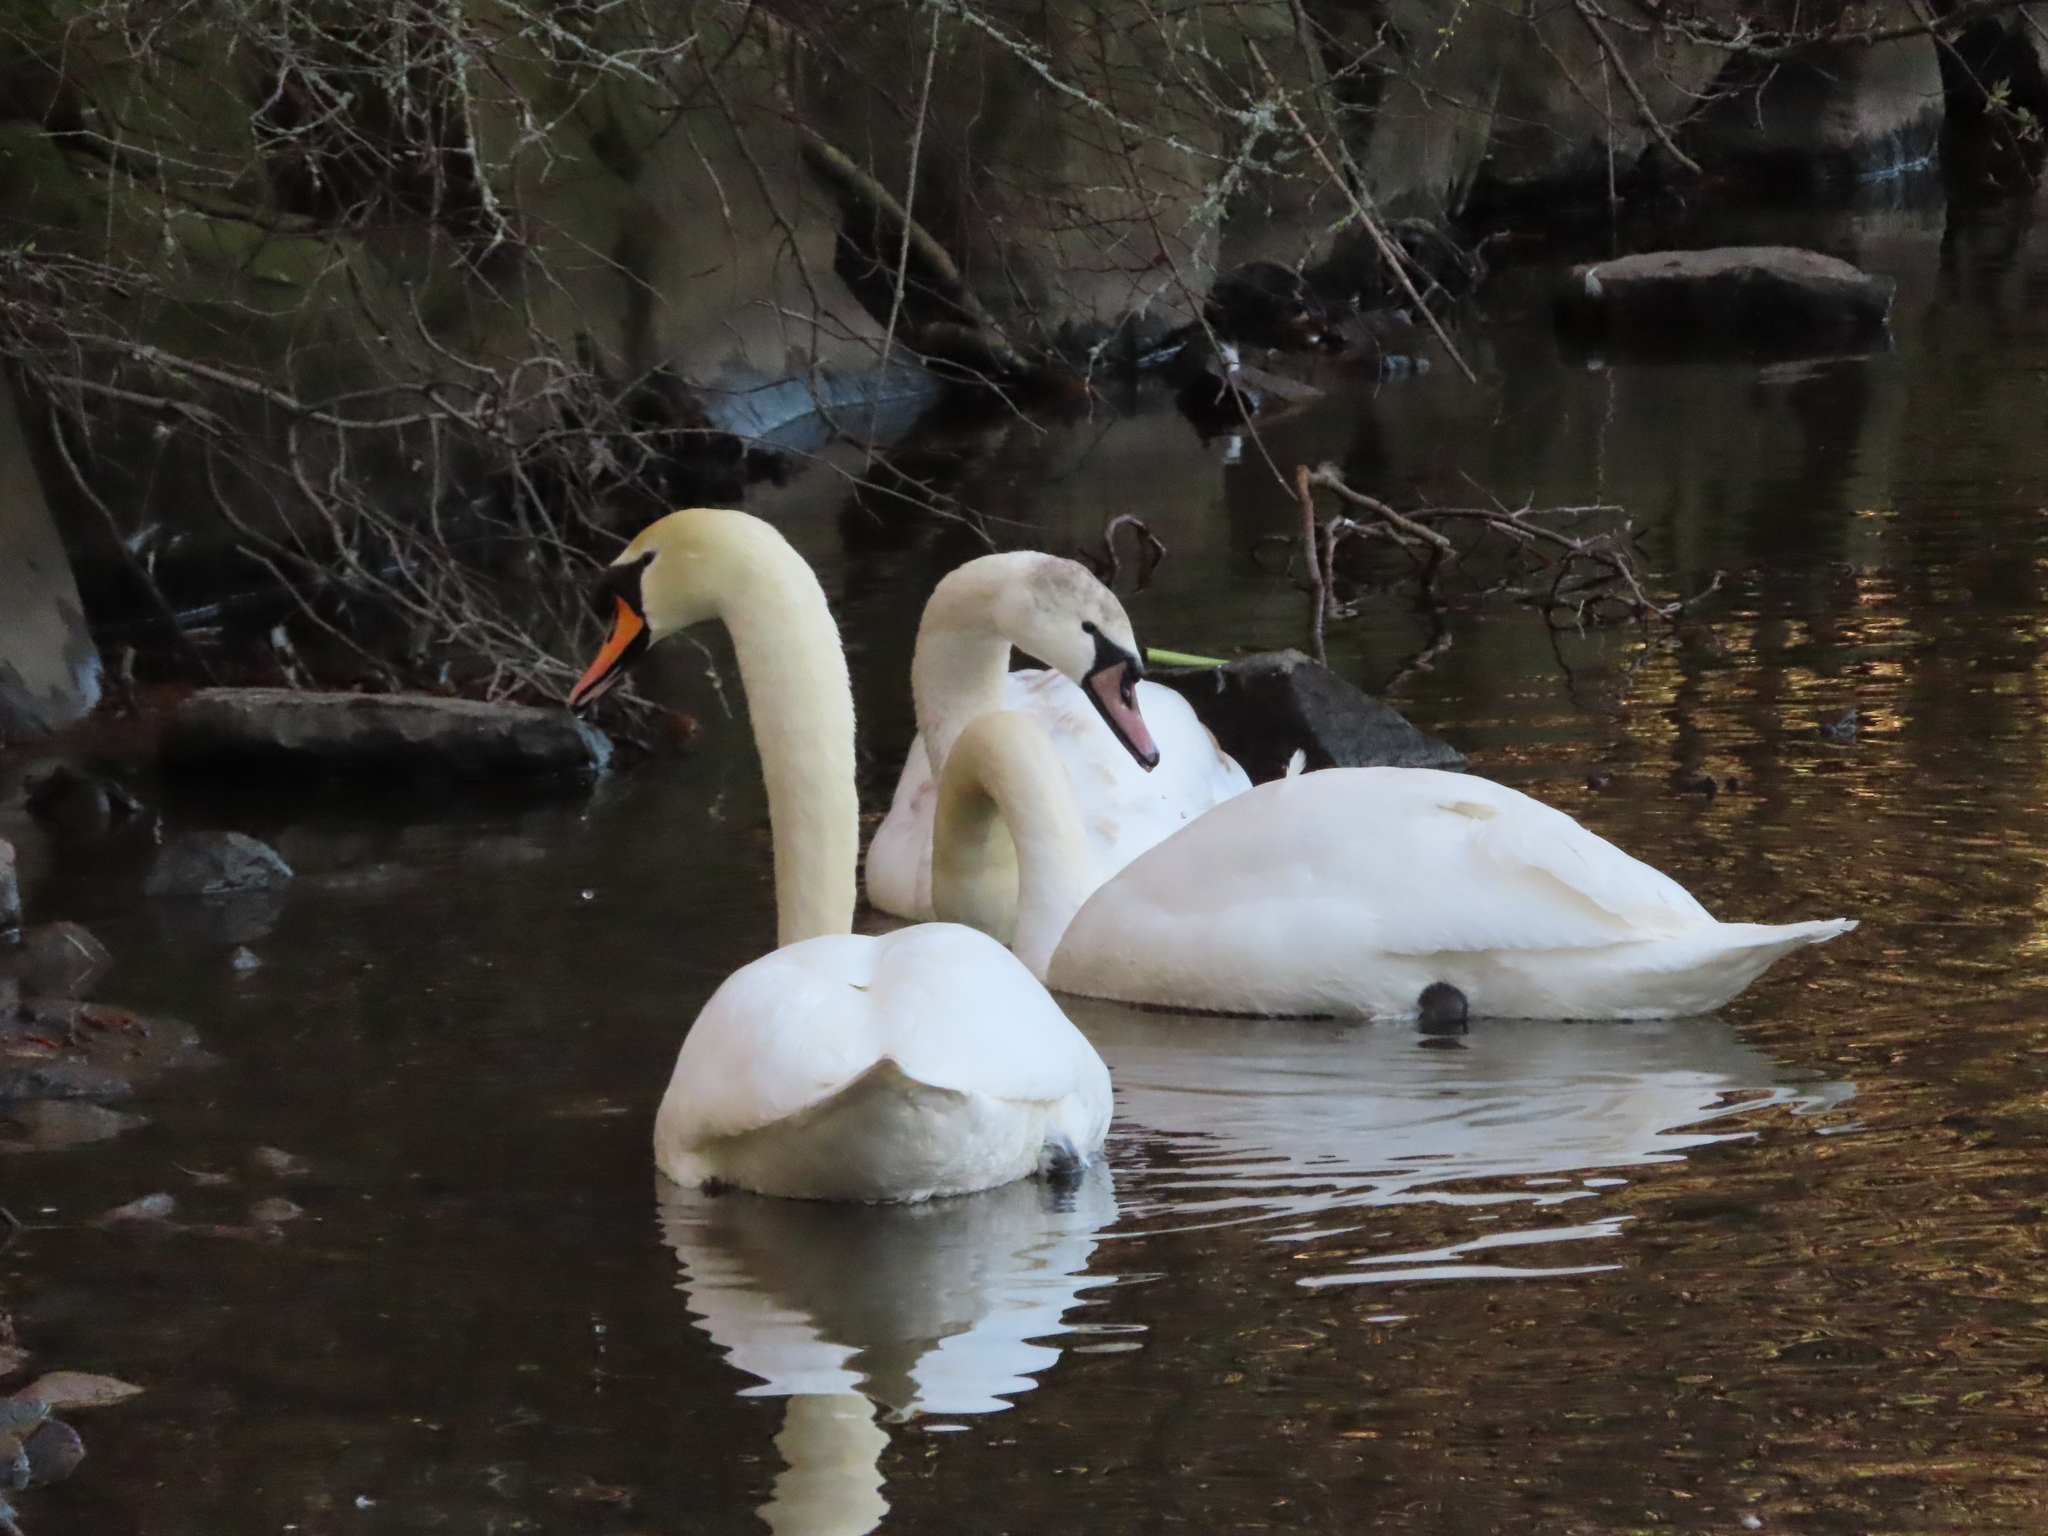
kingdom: Animalia
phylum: Chordata
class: Aves
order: Anseriformes
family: Anatidae
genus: Cygnus
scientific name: Cygnus olor
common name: Mute swan
